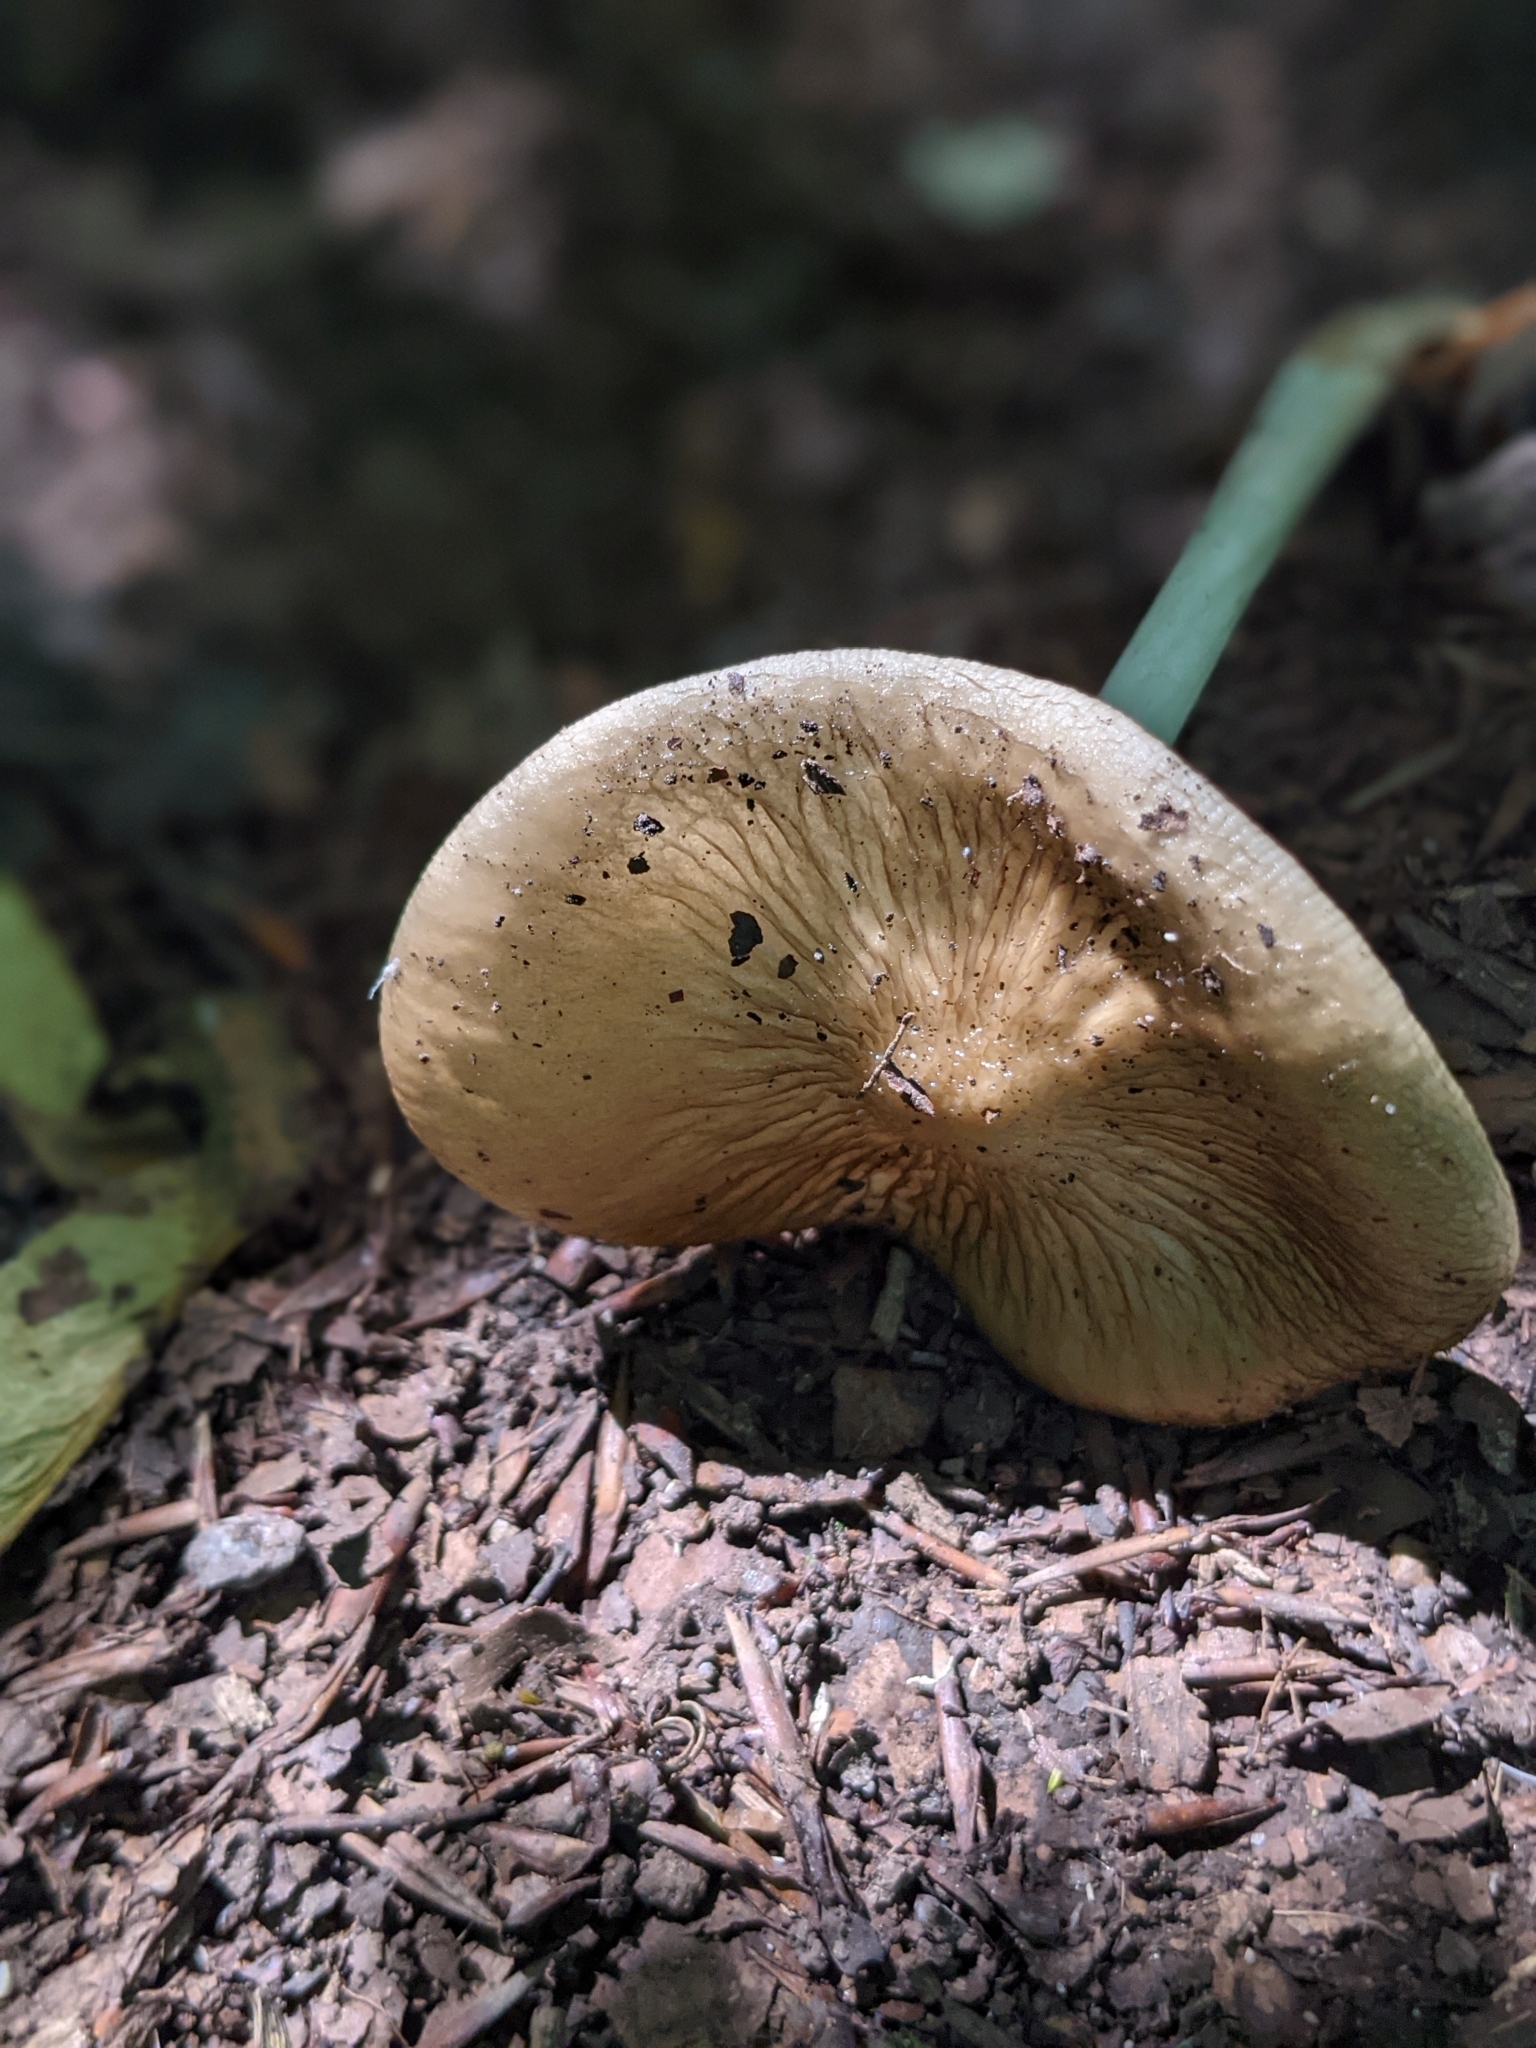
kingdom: Fungi
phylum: Basidiomycota
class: Agaricomycetes
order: Agaricales
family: Physalacriaceae
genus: Hymenopellis
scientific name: Hymenopellis radicata
